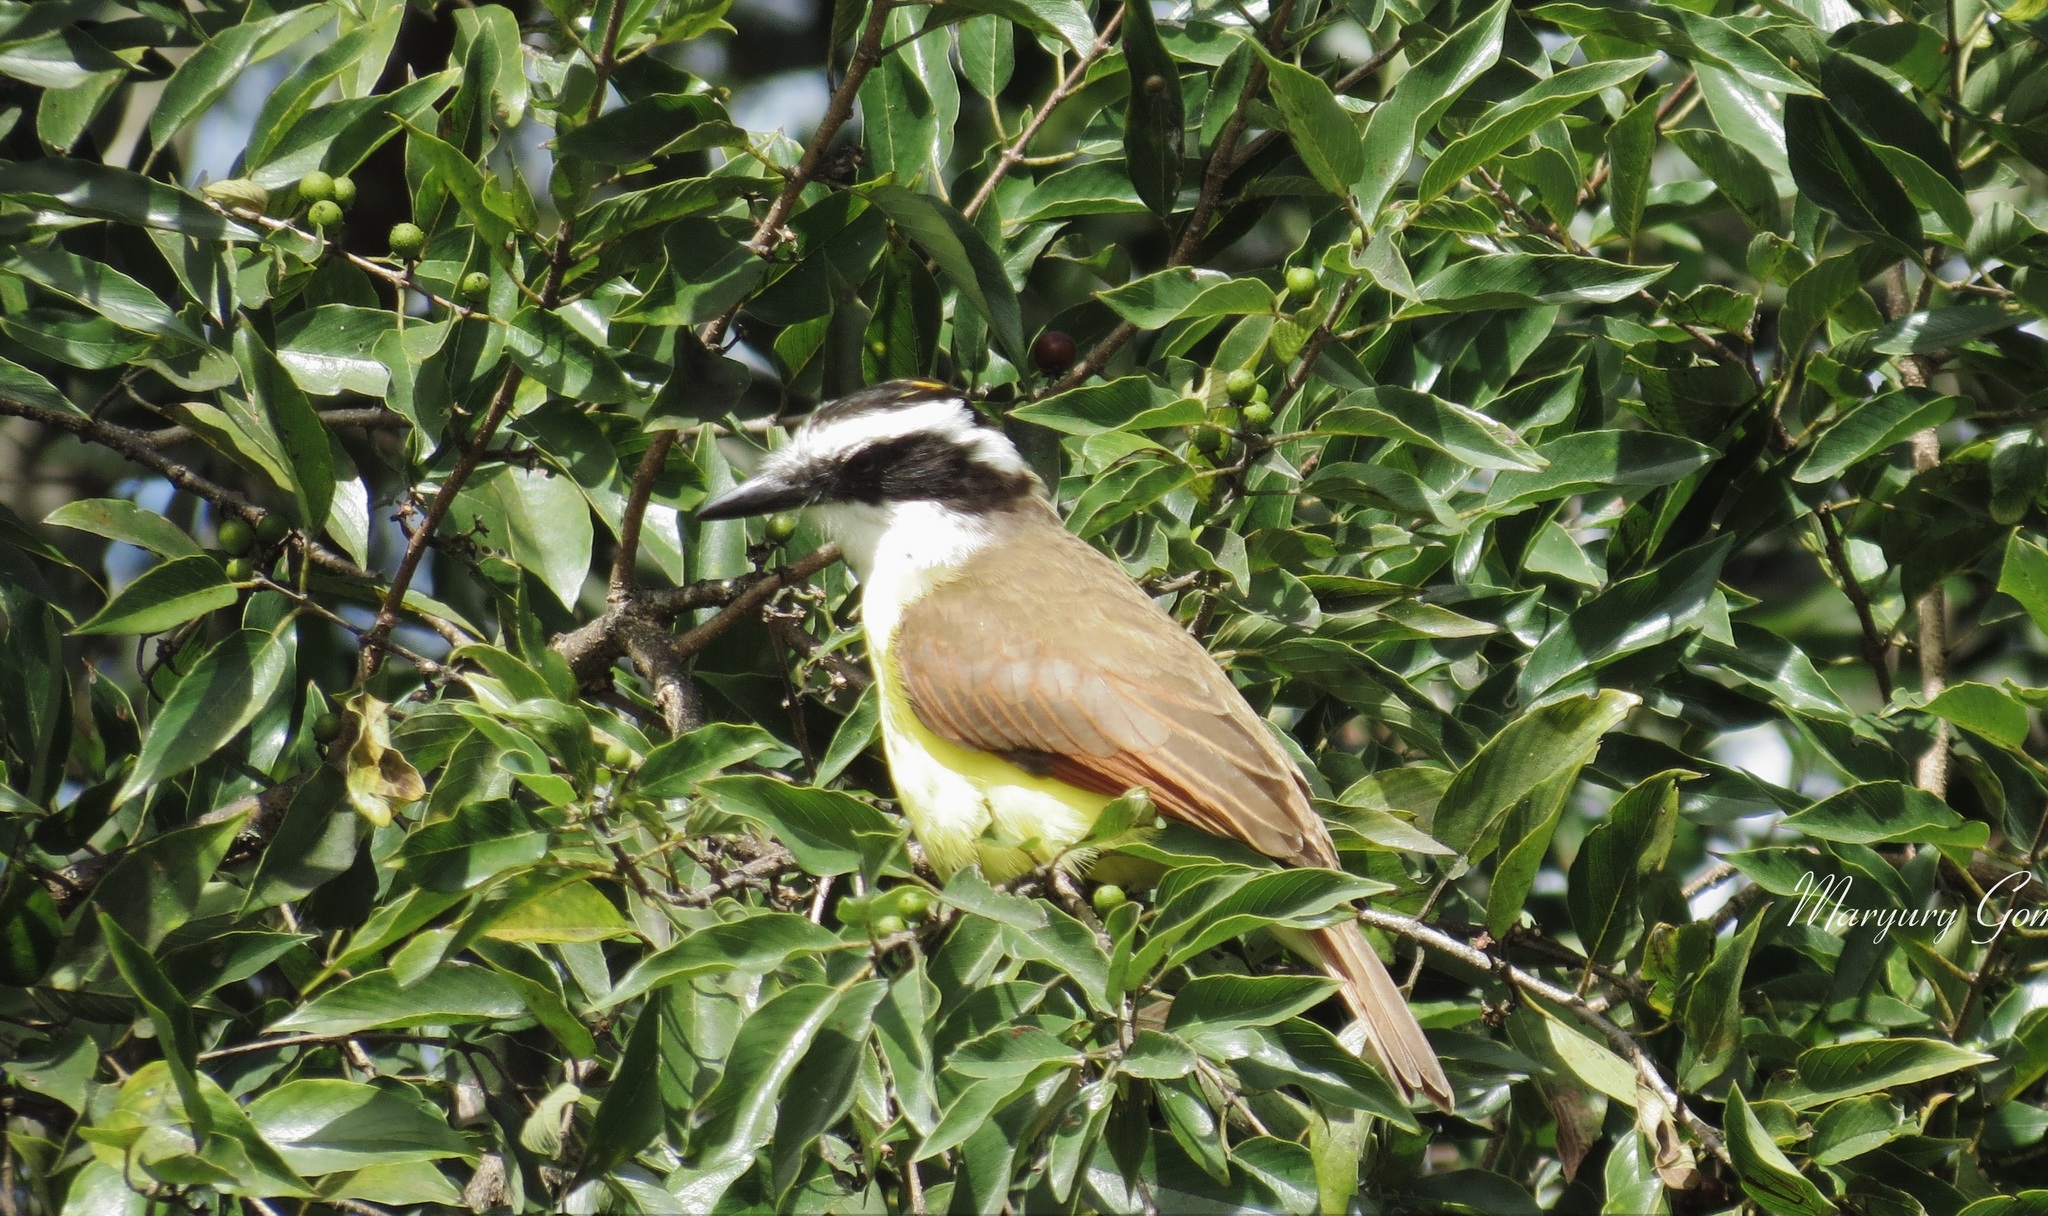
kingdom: Animalia
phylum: Chordata
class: Aves
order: Passeriformes
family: Tyrannidae
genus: Pitangus
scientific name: Pitangus sulphuratus
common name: Great kiskadee
